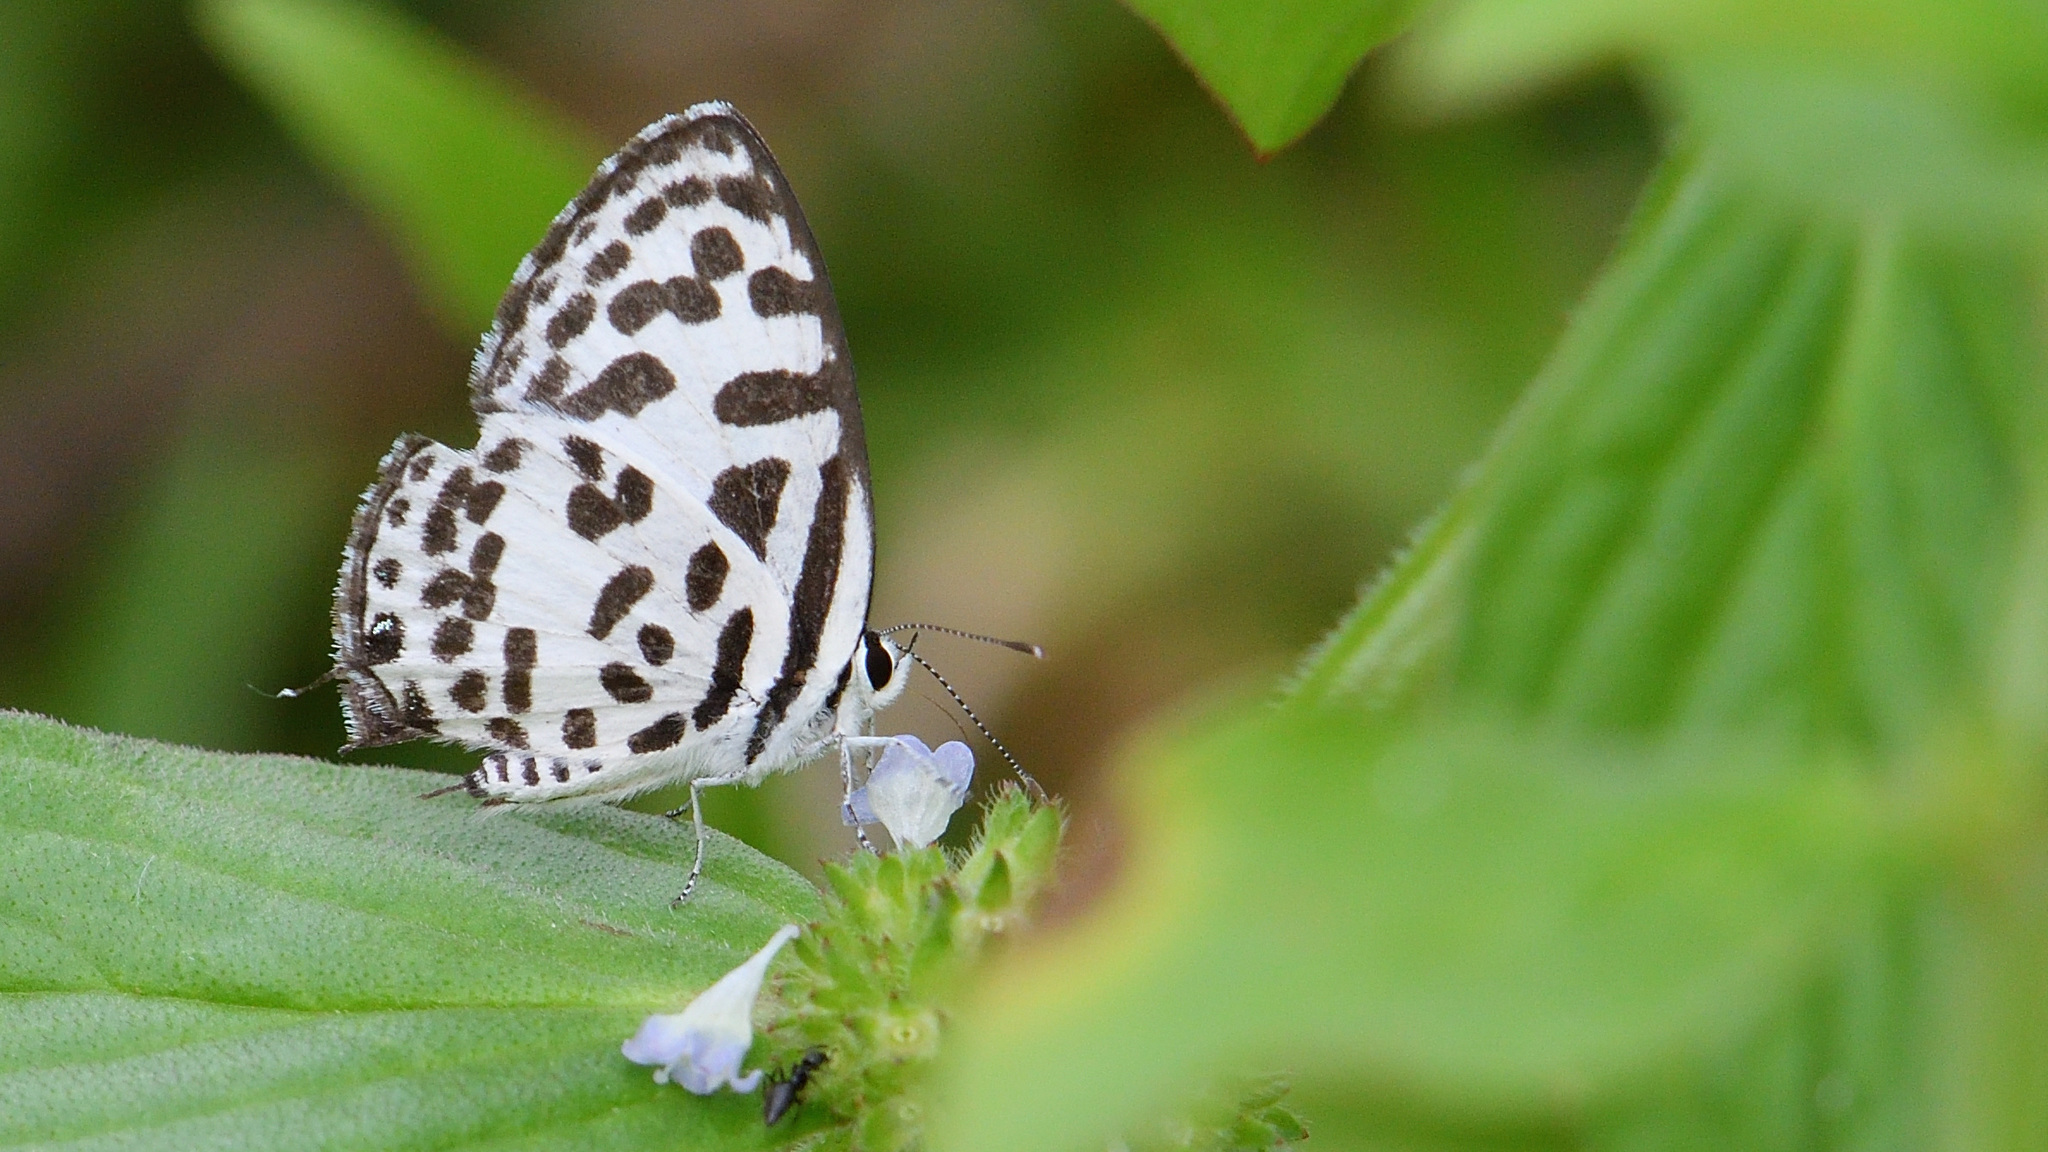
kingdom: Animalia
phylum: Arthropoda
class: Insecta
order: Lepidoptera
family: Lycaenidae
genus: Castalius
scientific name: Castalius rosimon
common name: Common pierrot
